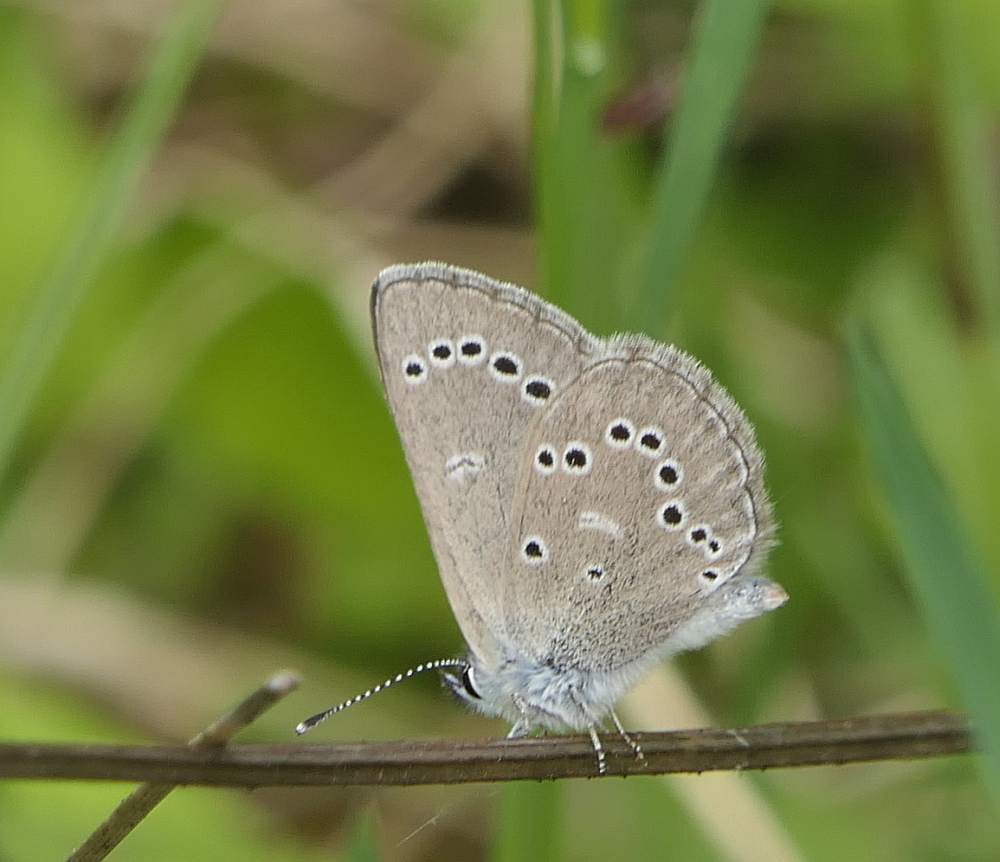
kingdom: Animalia
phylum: Arthropoda
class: Insecta
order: Lepidoptera
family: Lycaenidae
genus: Glaucopsyche
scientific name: Glaucopsyche lygdamus
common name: Silvery blue
